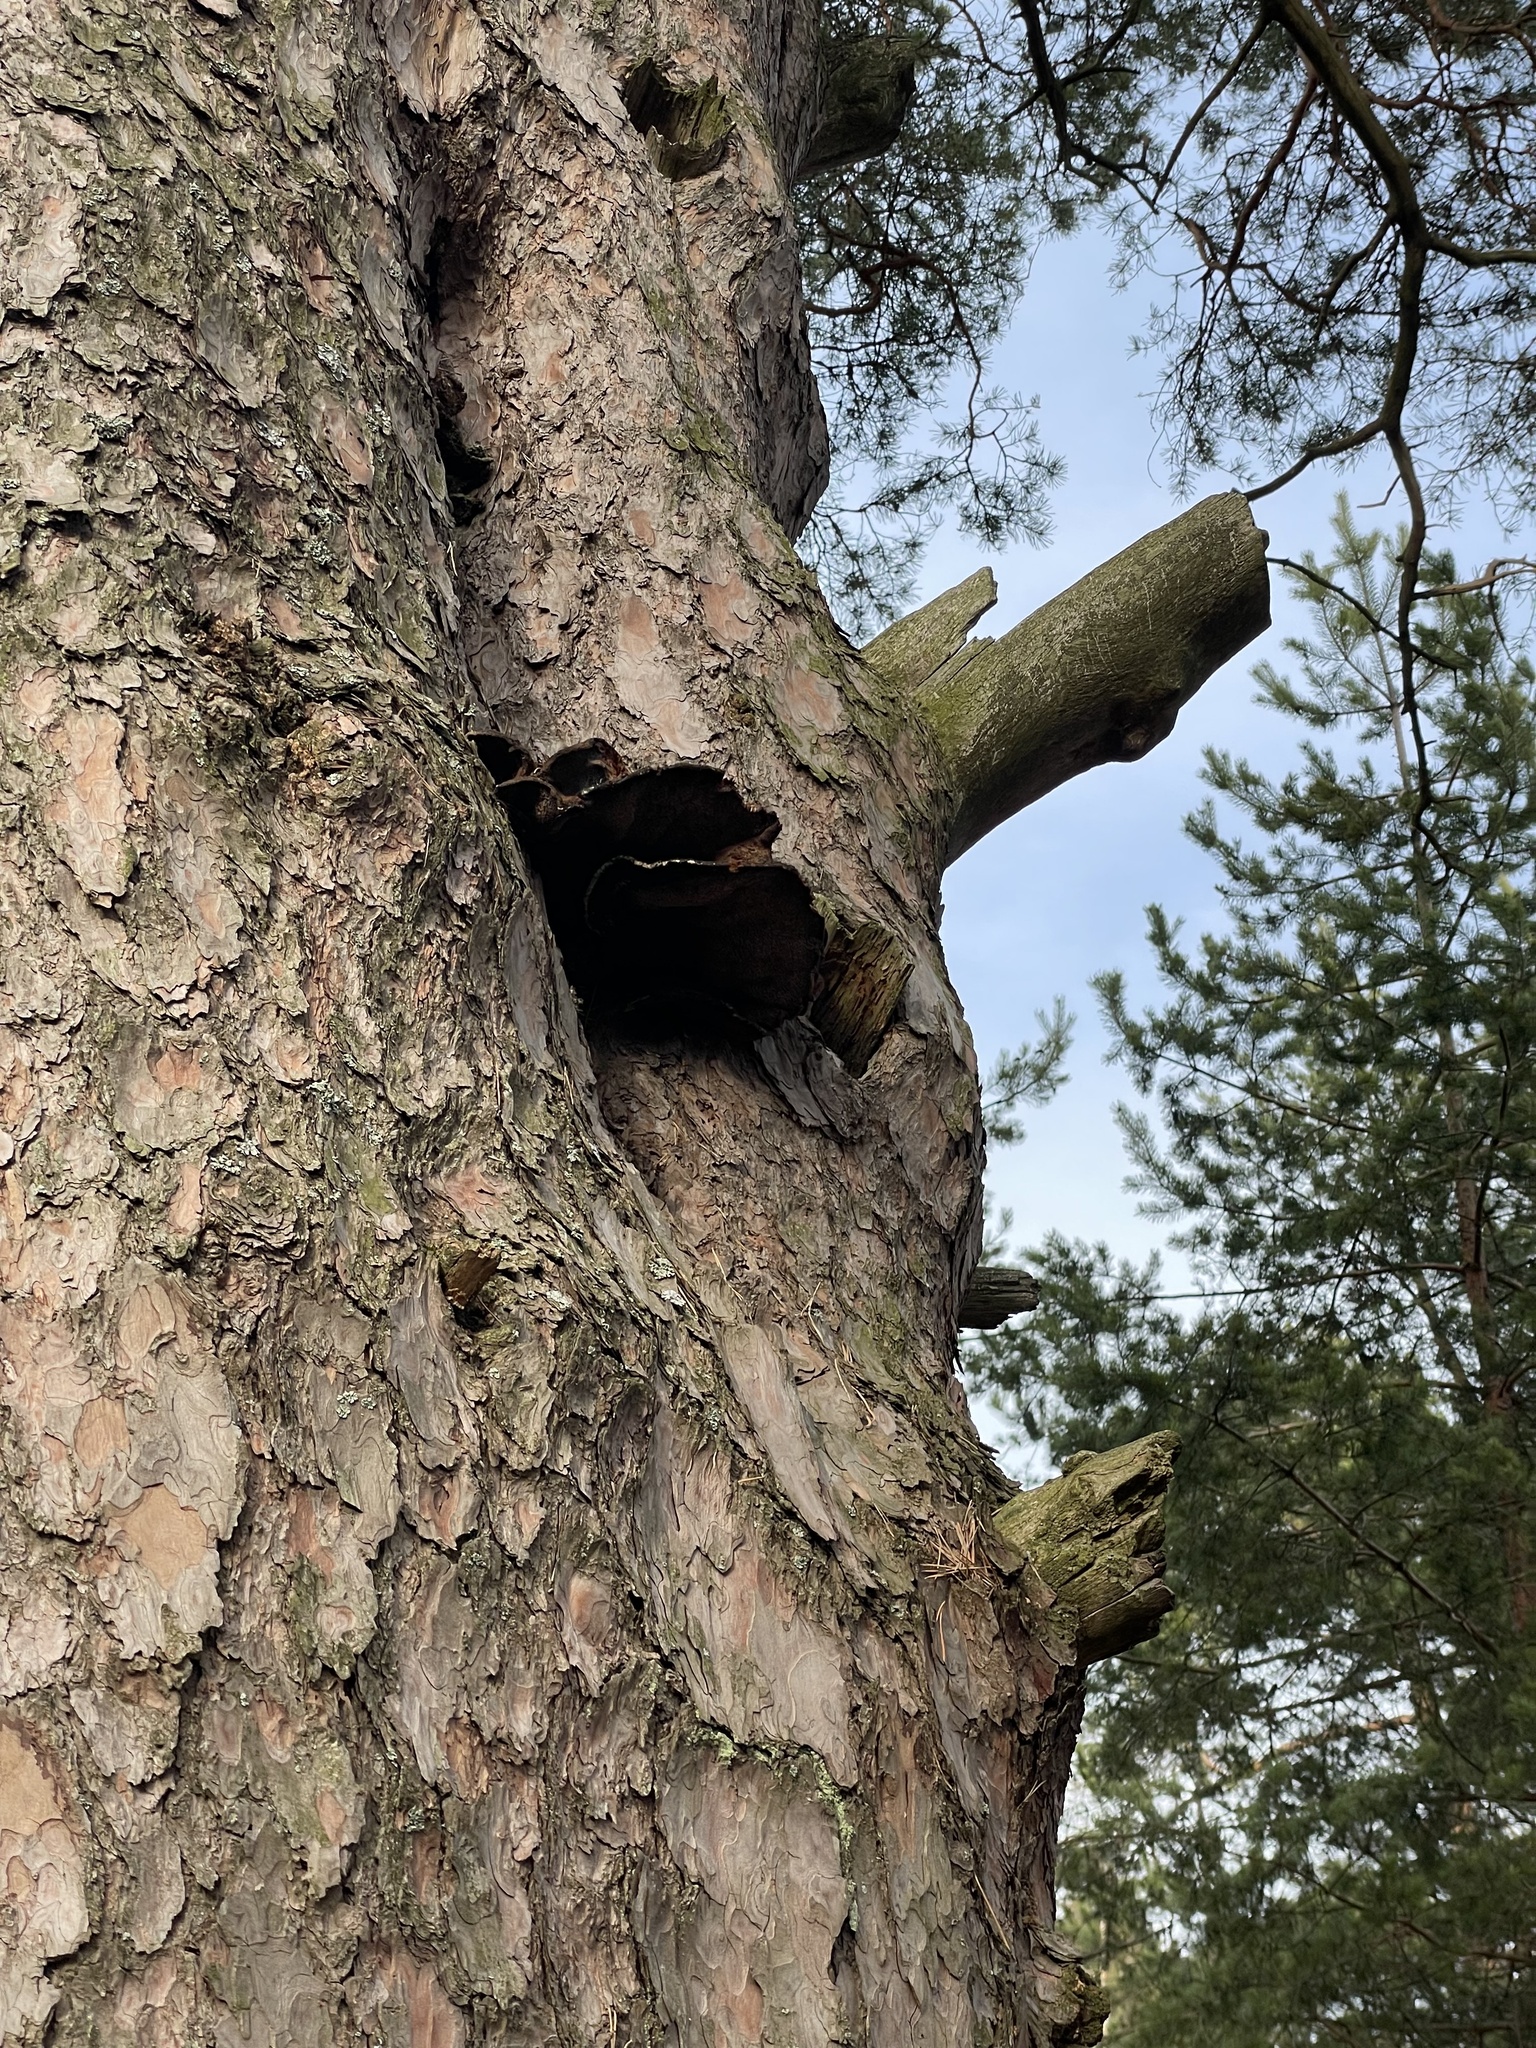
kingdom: Fungi
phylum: Basidiomycota
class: Agaricomycetes
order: Hymenochaetales
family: Hymenochaetaceae
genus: Porodaedalea
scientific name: Porodaedalea pini
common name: Pine bracket
